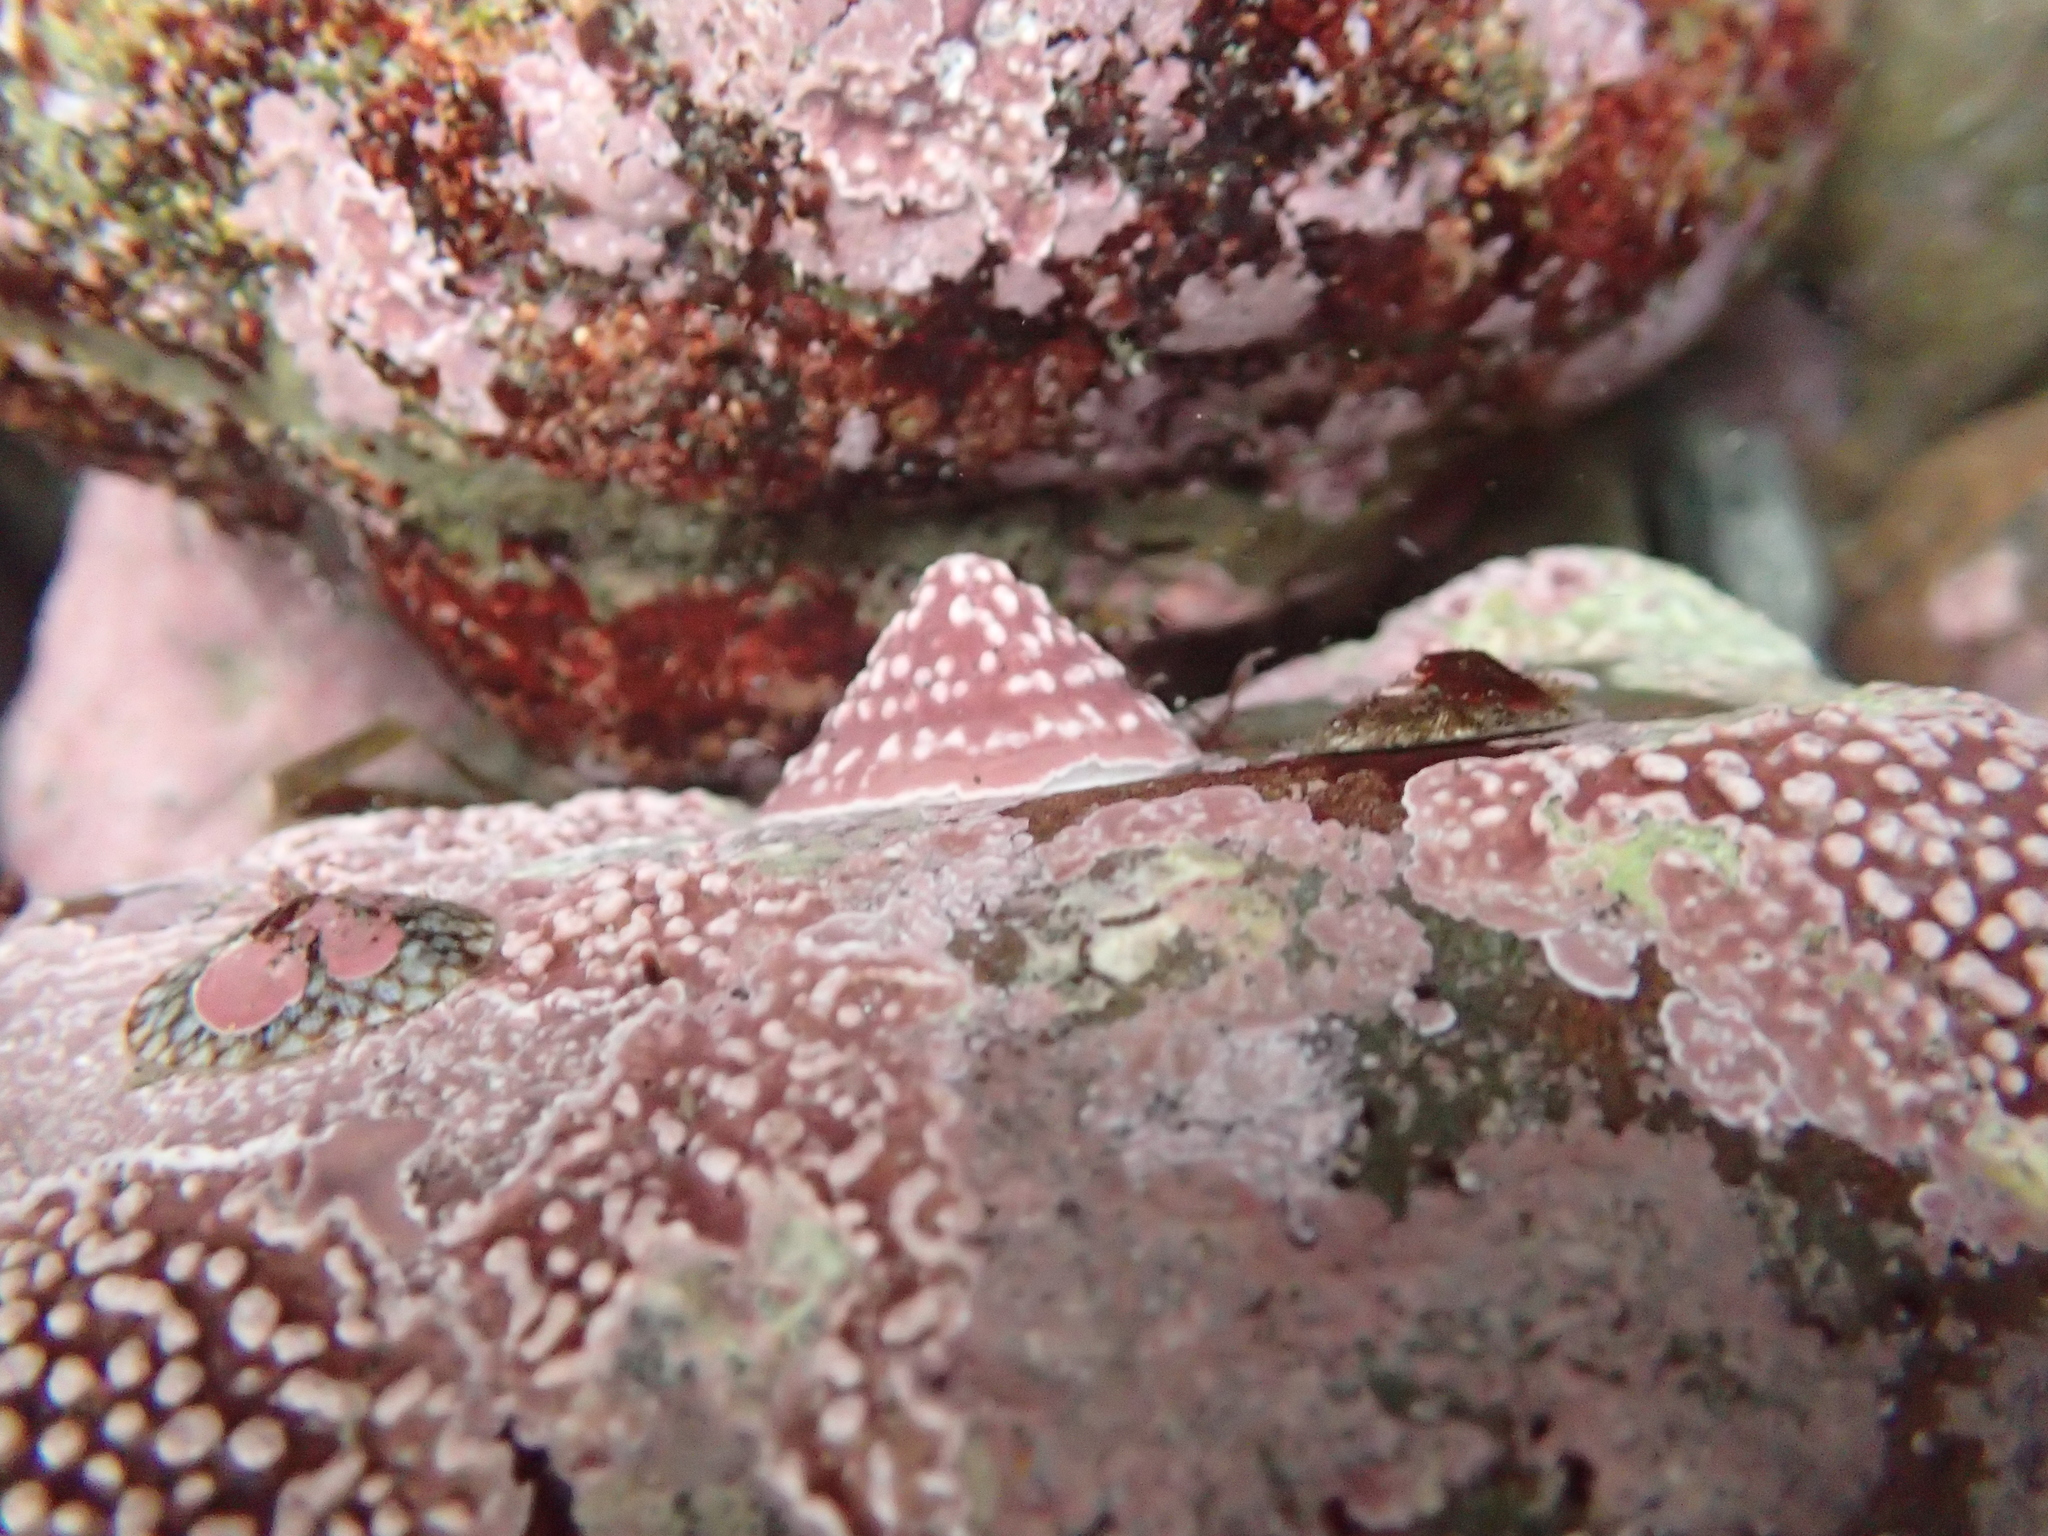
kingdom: Animalia
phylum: Mollusca
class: Gastropoda
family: Acmaeidae
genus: Acmaea
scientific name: Acmaea mitra
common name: Pacific white cap limpet
